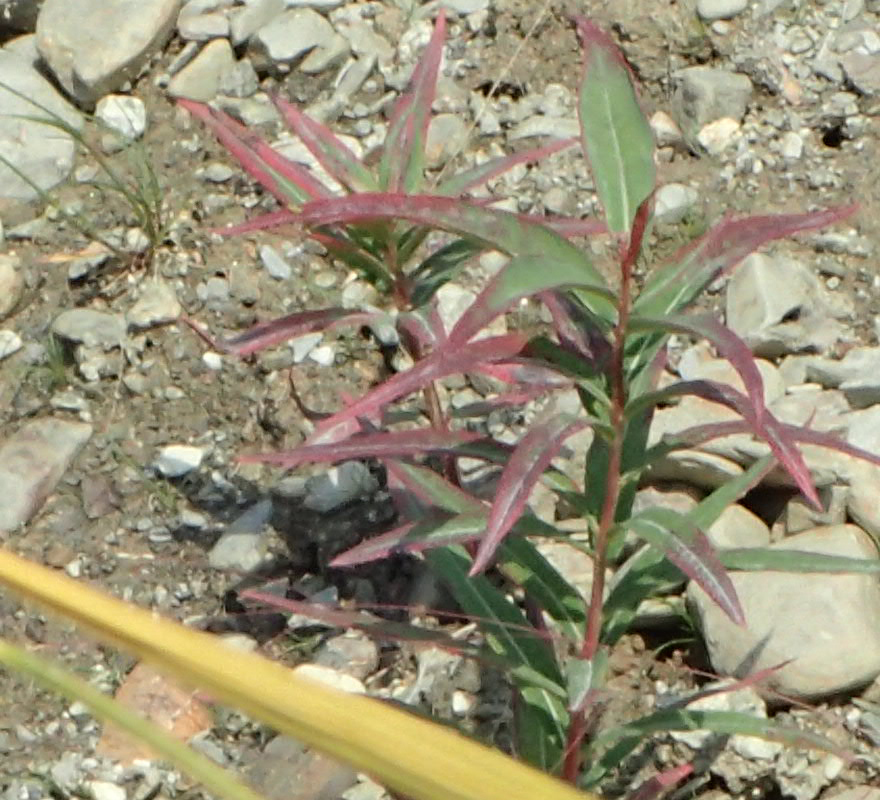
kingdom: Plantae
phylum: Tracheophyta
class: Magnoliopsida
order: Myrtales
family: Onagraceae
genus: Chamaenerion
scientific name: Chamaenerion angustifolium
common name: Fireweed
